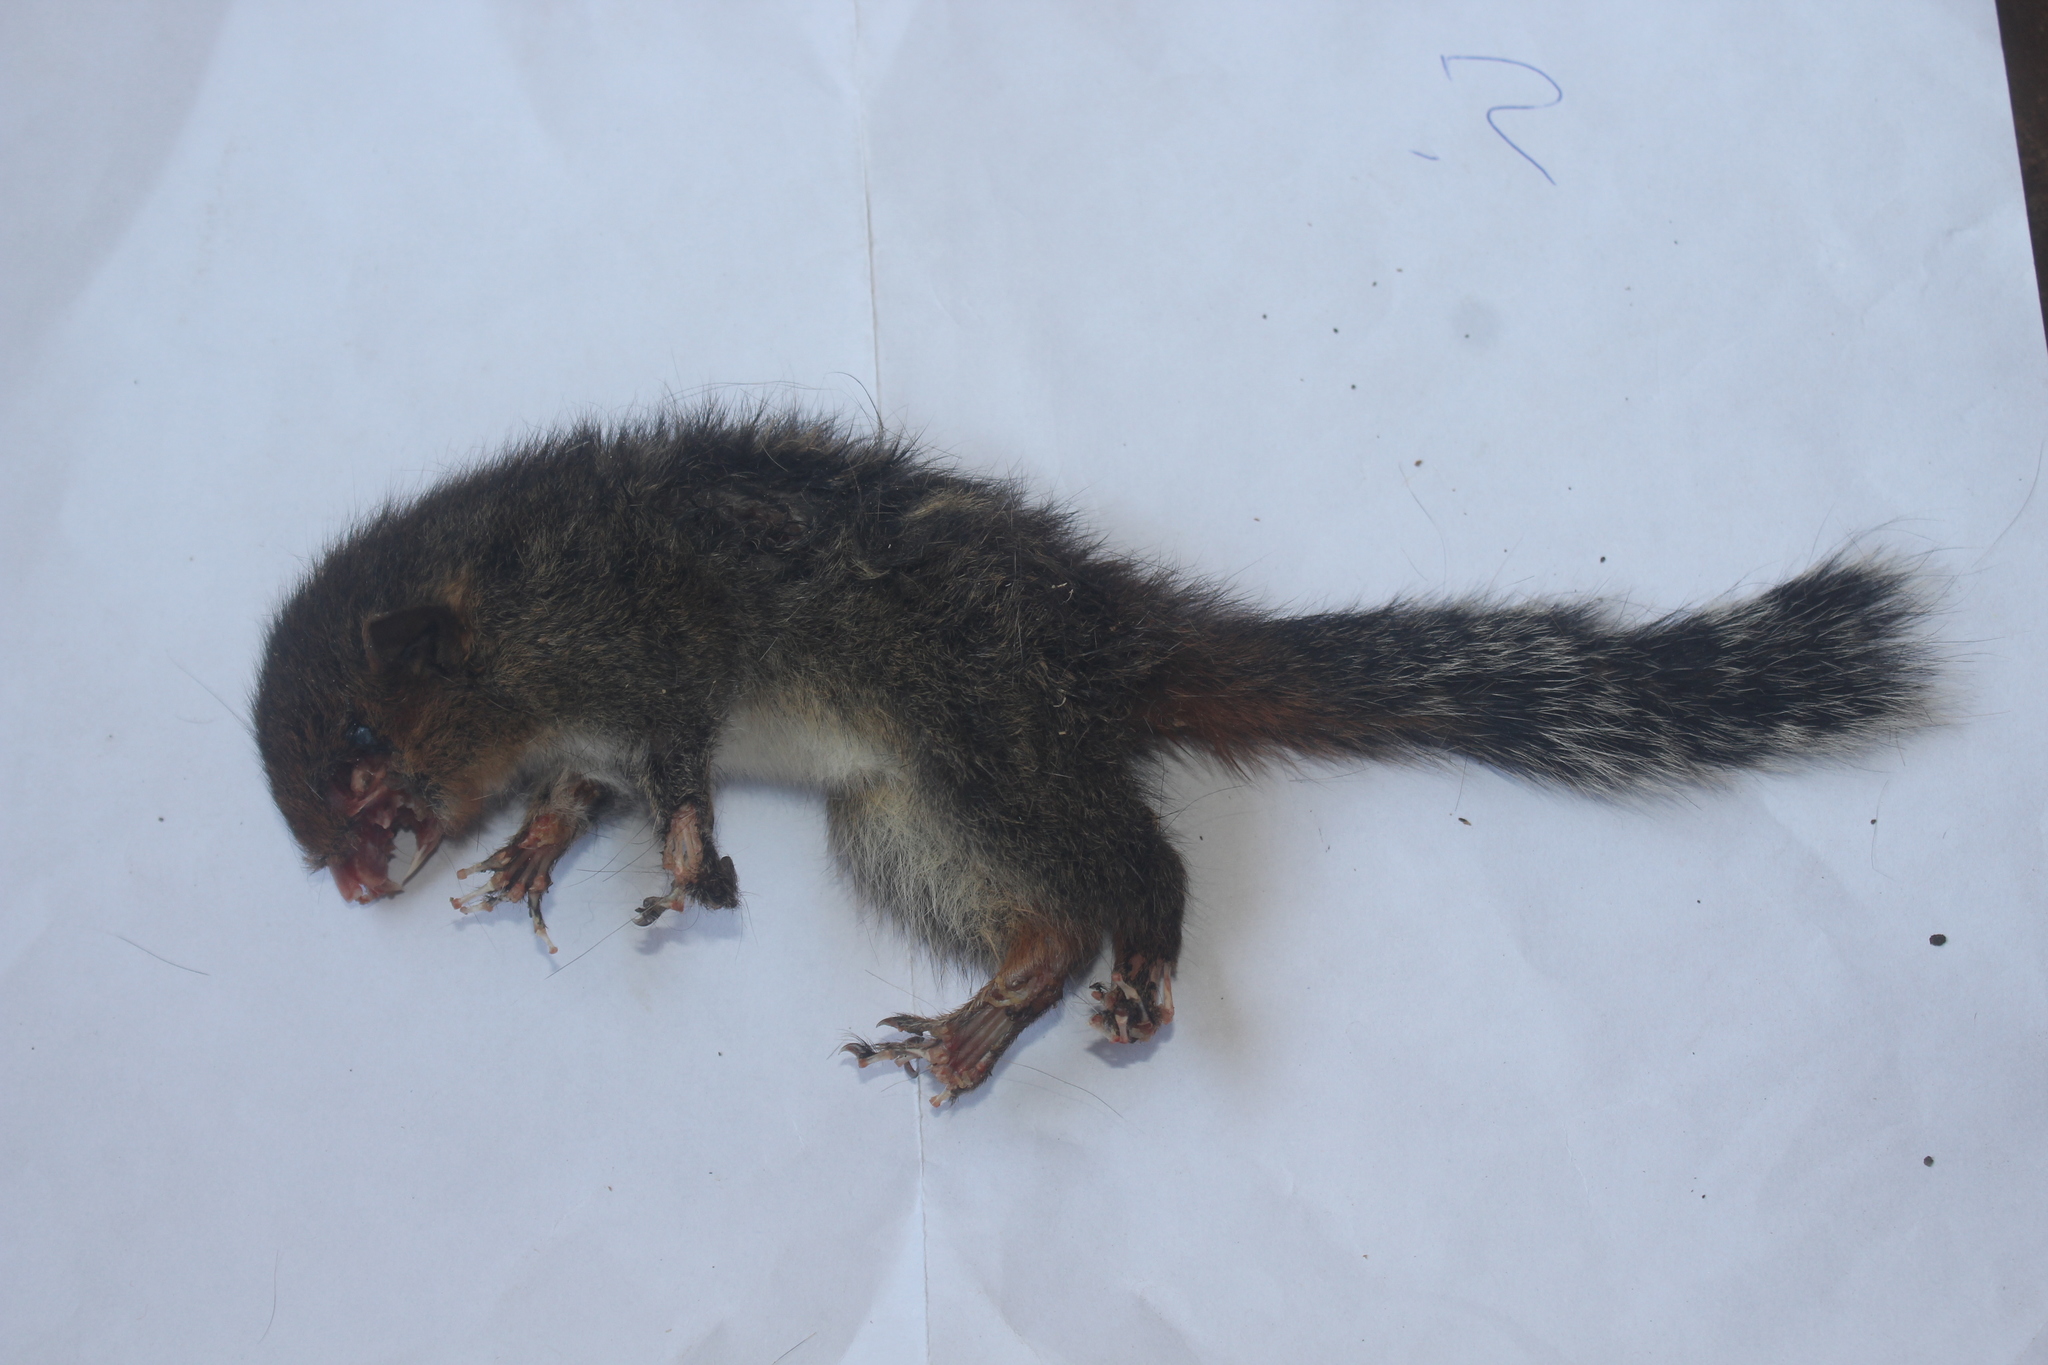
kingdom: Animalia
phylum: Chordata
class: Mammalia
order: Rodentia
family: Sciuridae
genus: Funambulus
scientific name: Funambulus tristriatus
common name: Jungle palm squirrel
